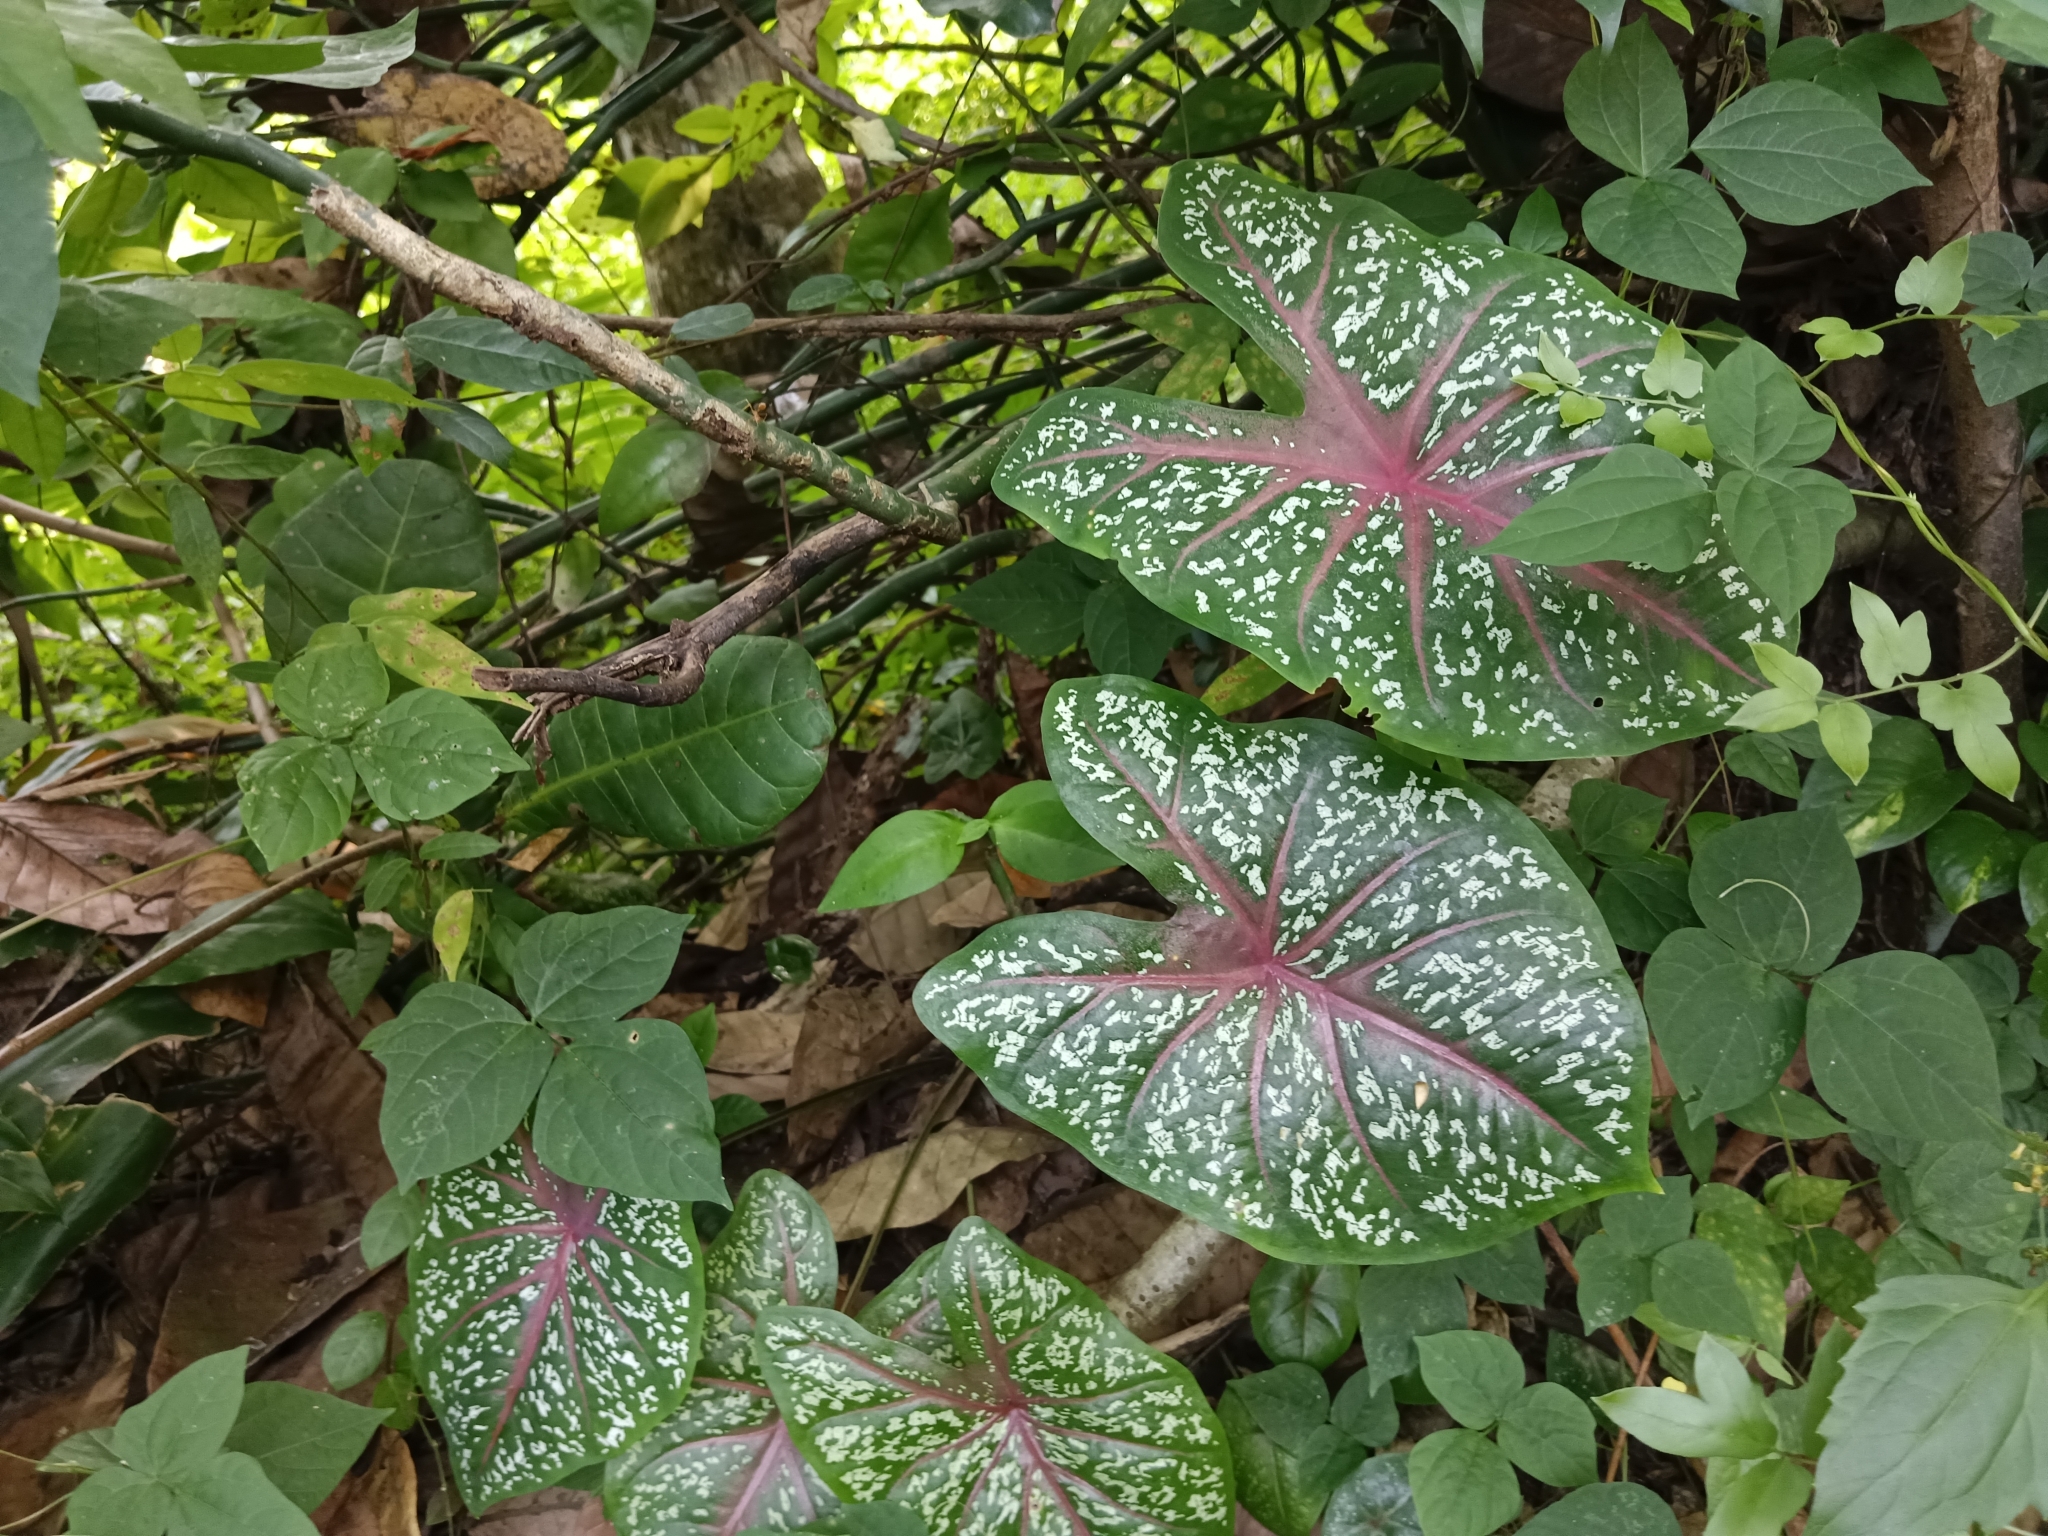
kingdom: Plantae
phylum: Tracheophyta
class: Liliopsida
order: Alismatales
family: Araceae
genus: Caladium
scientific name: Caladium bicolor
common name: Artist's pallet
